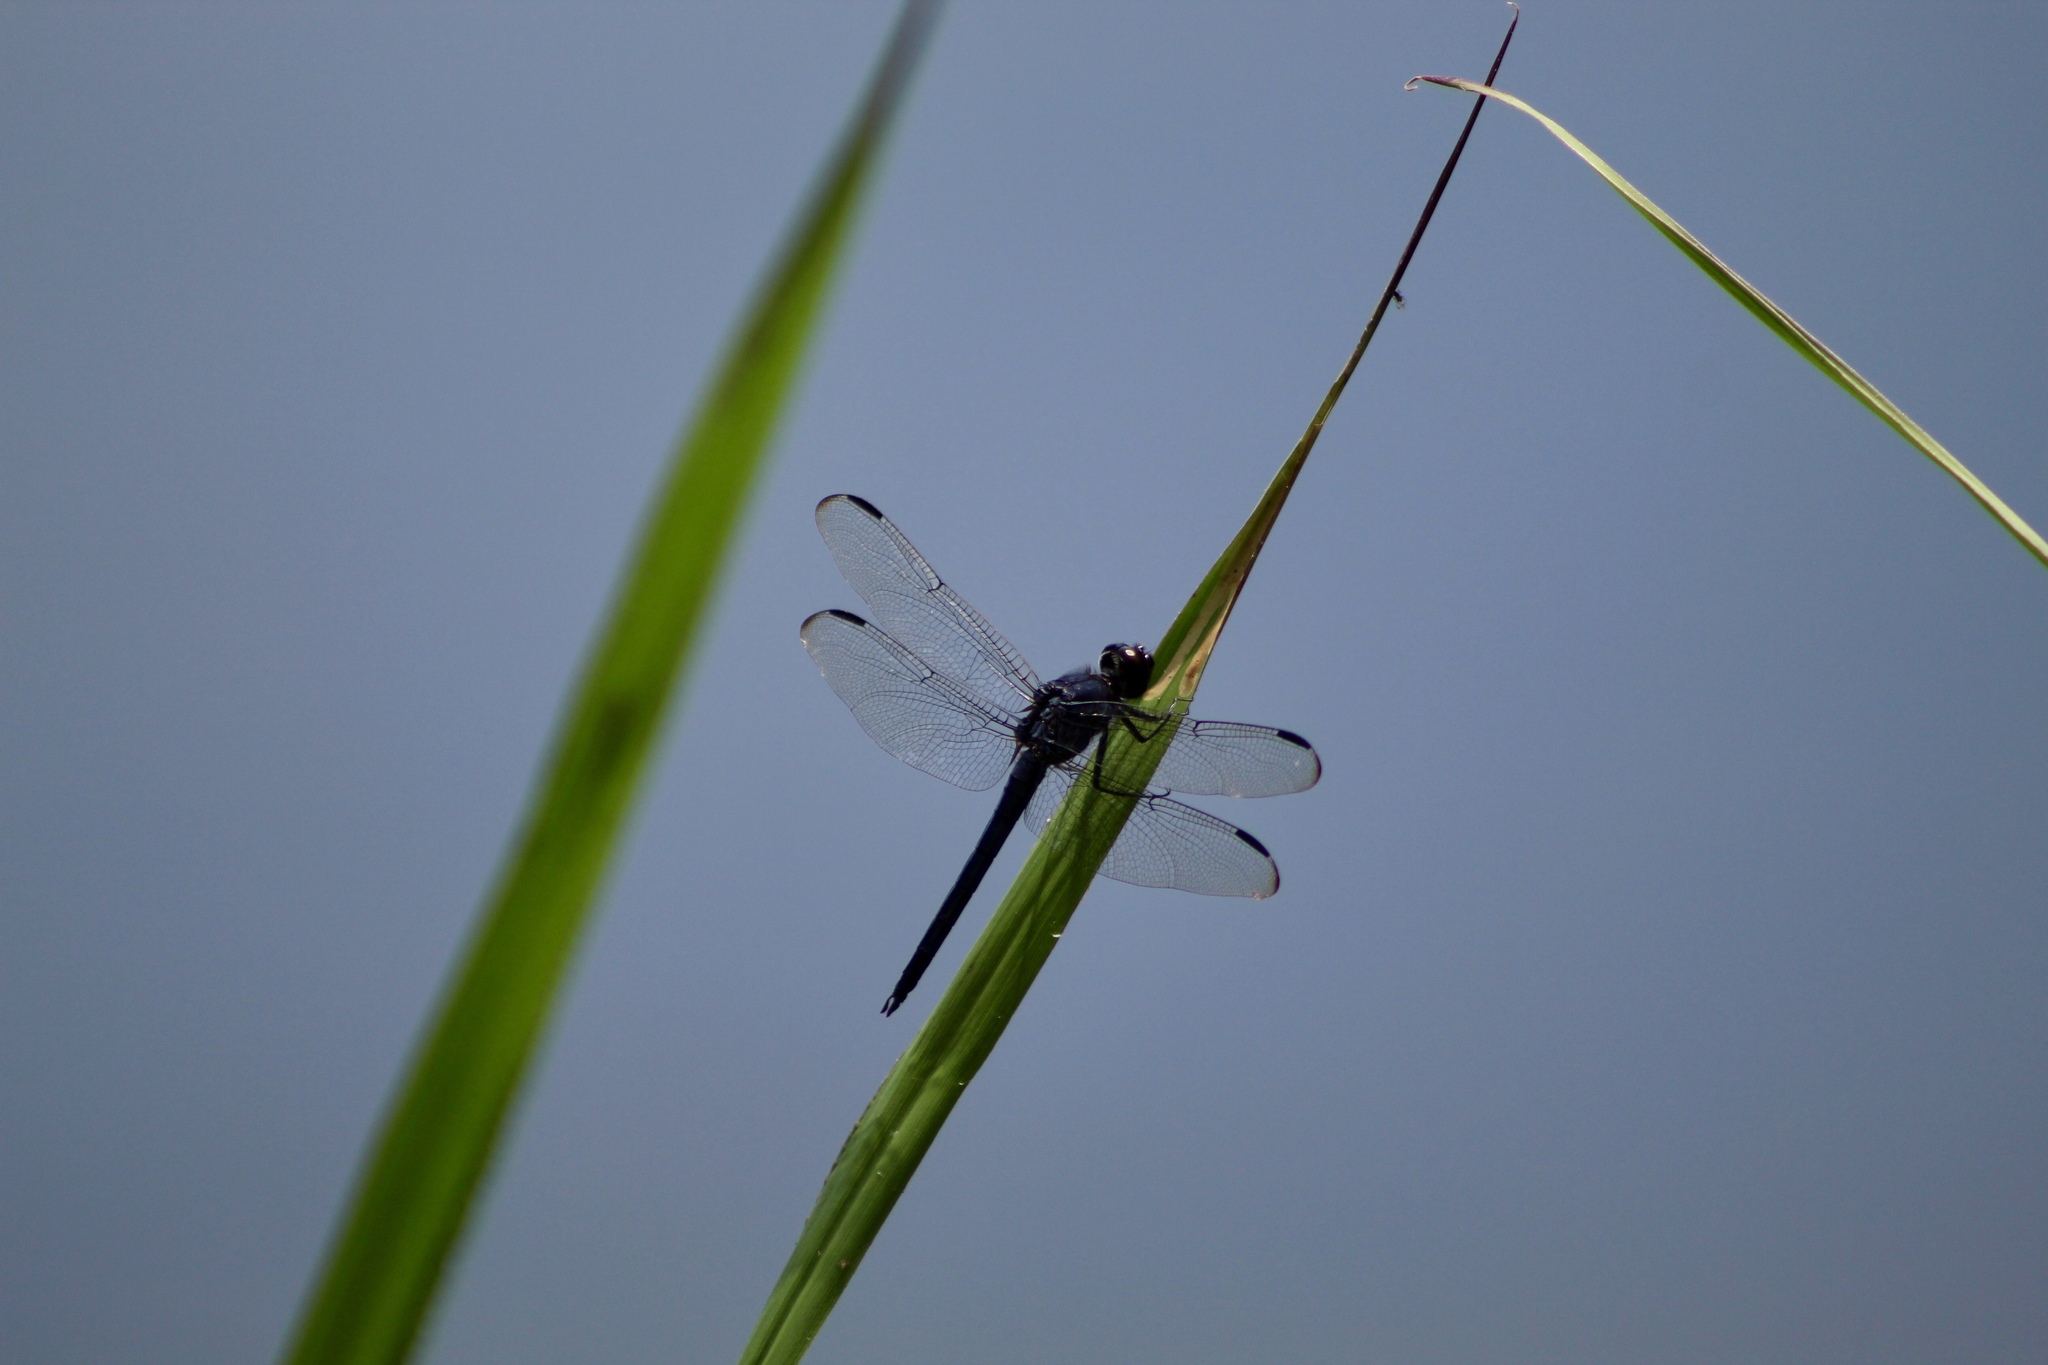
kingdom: Animalia
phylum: Arthropoda
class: Insecta
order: Odonata
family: Libellulidae
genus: Libellula
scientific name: Libellula incesta
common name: Slaty skimmer
